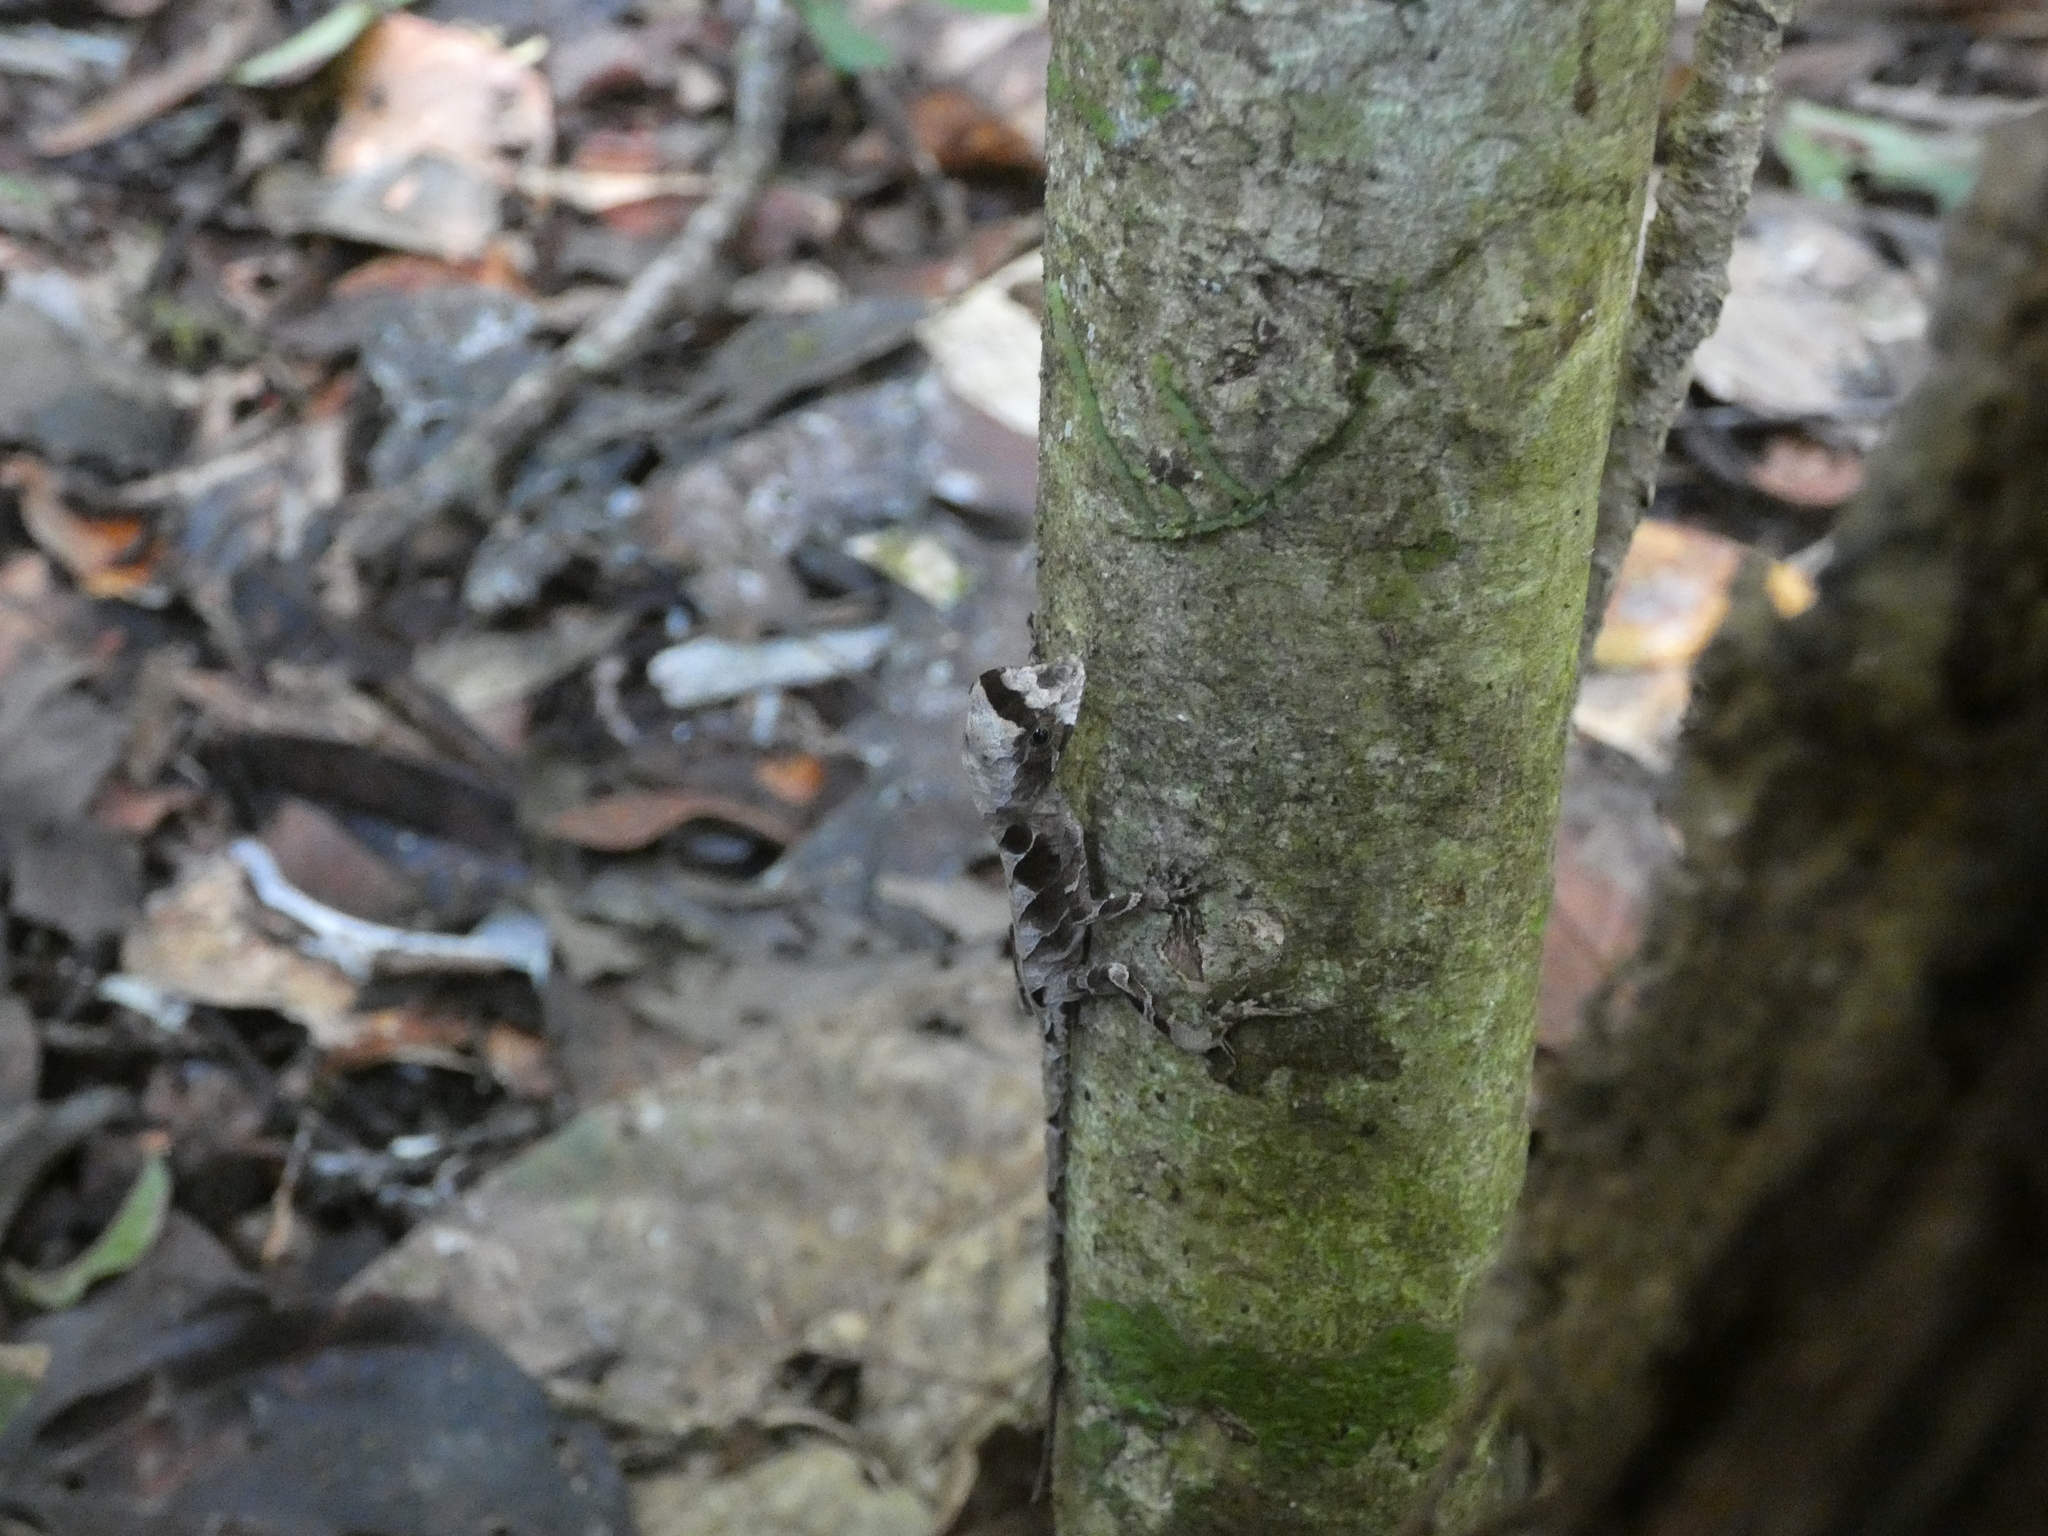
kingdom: Animalia
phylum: Chordata
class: Squamata
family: Dactyloidae
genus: Anolis
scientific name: Anolis scypheus
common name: Yellow-tongued anole
